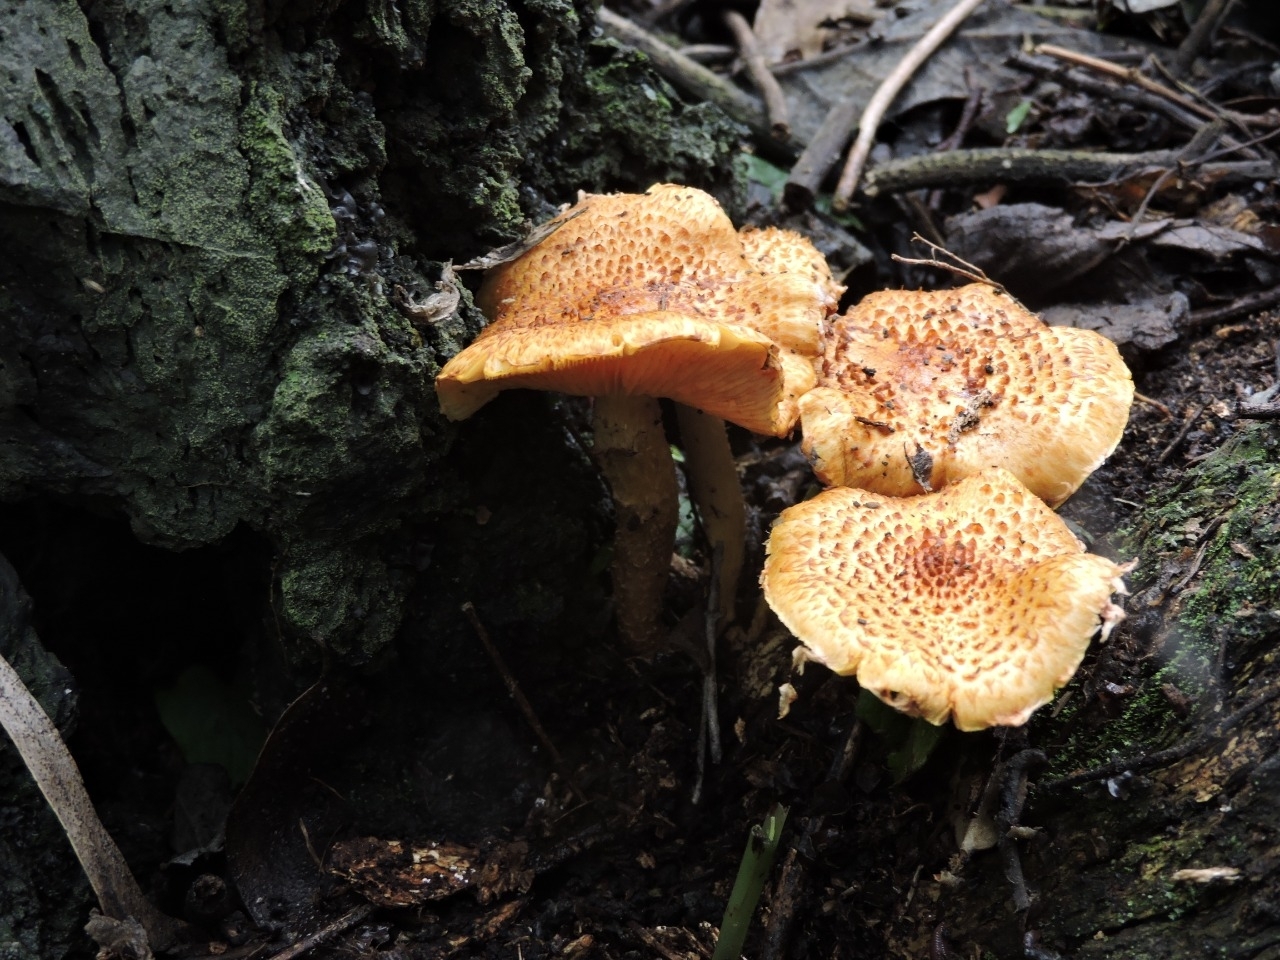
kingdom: Fungi
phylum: Basidiomycota
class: Agaricomycetes
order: Agaricales
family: Strophariaceae
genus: Pholiota
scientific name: Pholiota squarrosoides
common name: Sharp-scaly pholiota
